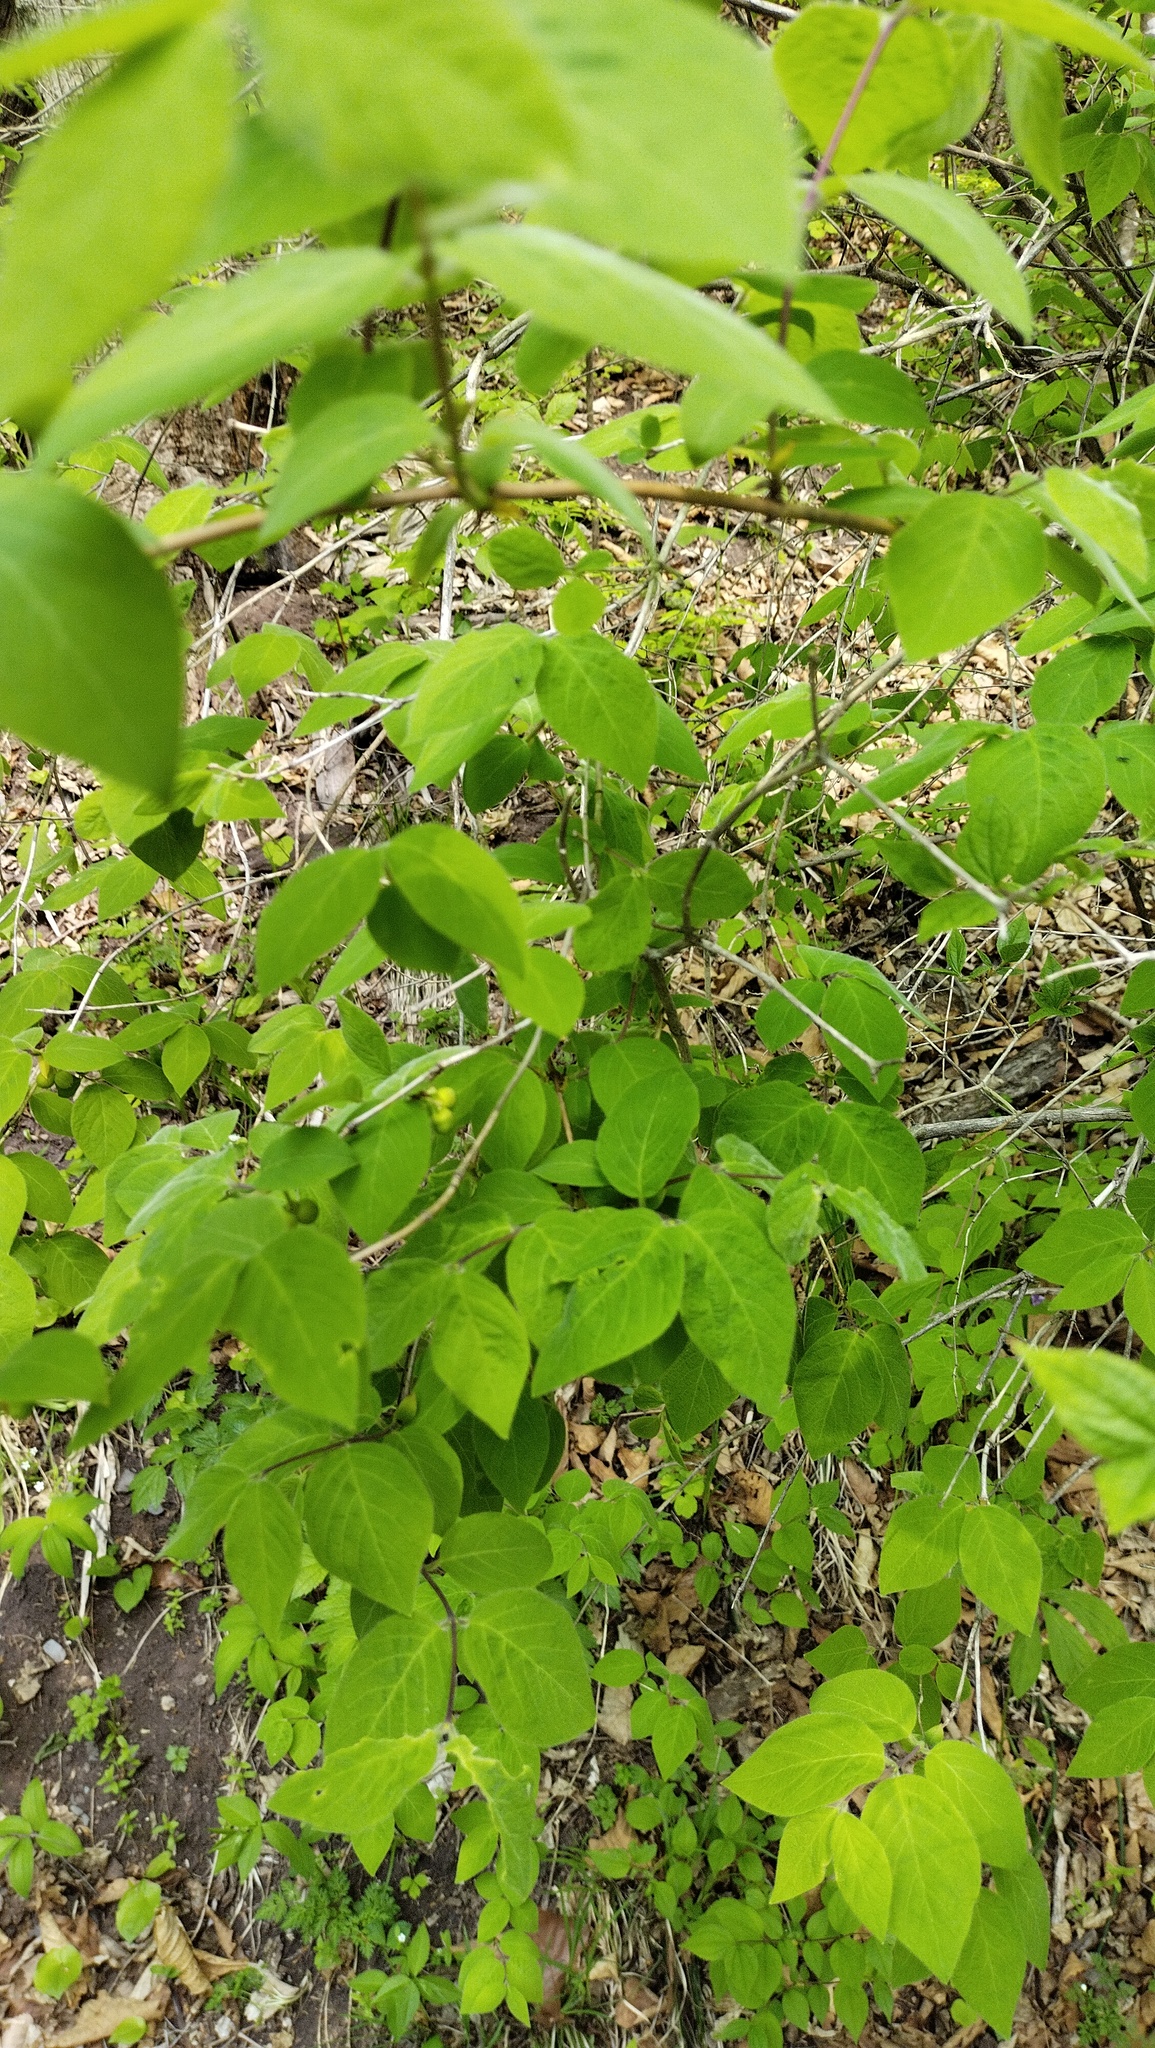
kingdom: Plantae
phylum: Tracheophyta
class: Magnoliopsida
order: Dipsacales
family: Caprifoliaceae
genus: Lonicera
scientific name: Lonicera praeflorens
